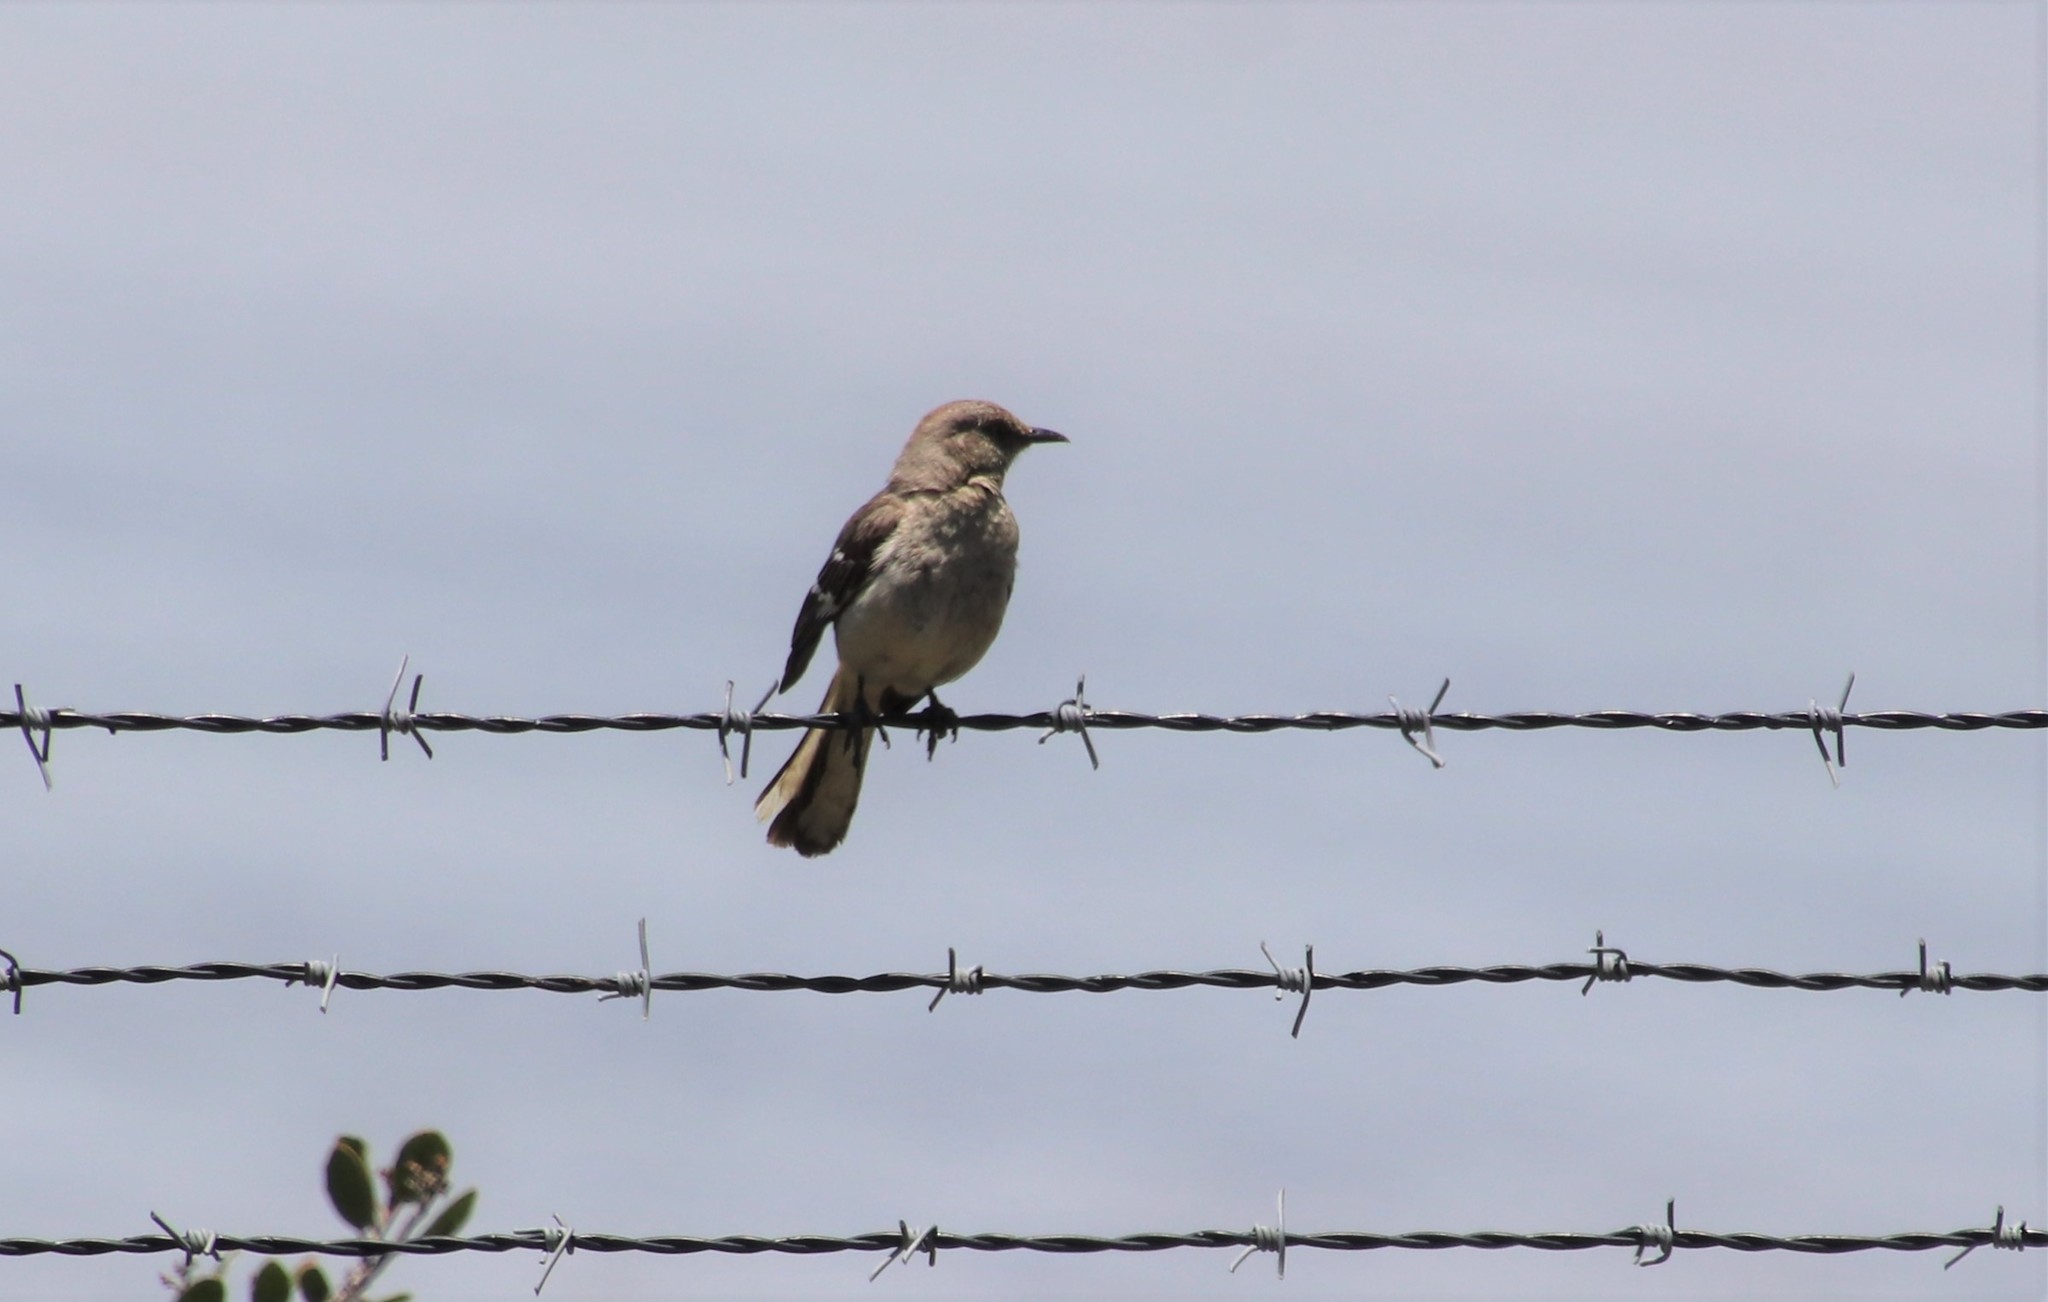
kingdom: Animalia
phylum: Chordata
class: Aves
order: Passeriformes
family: Mimidae
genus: Mimus
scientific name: Mimus polyglottos
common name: Northern mockingbird
